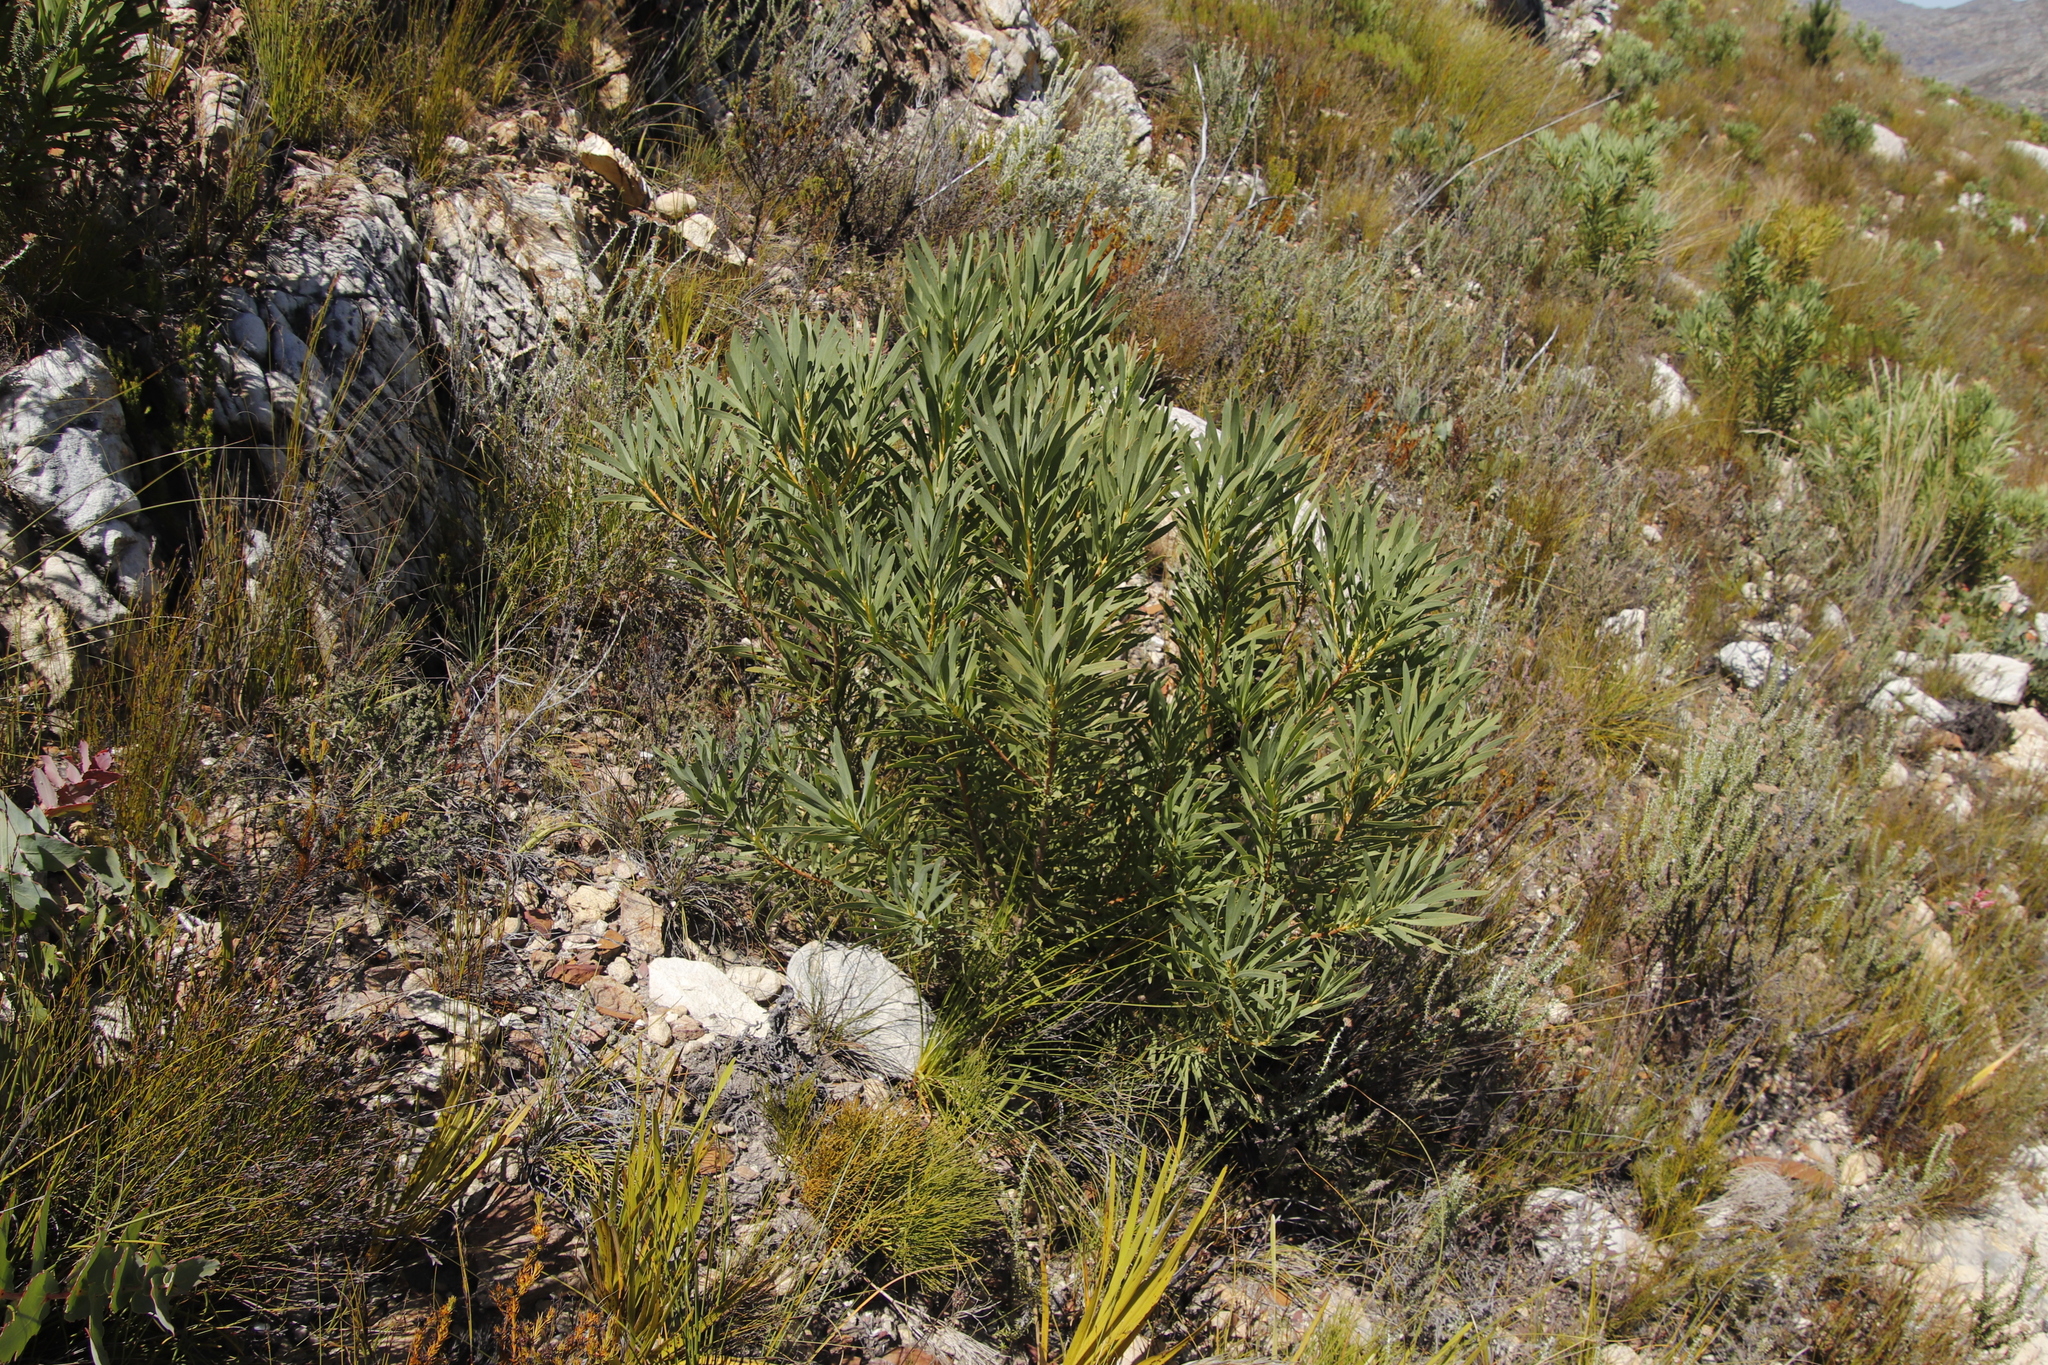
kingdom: Plantae
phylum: Tracheophyta
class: Magnoliopsida
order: Proteales
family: Proteaceae
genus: Protea
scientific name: Protea repens
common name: Sugarbush
